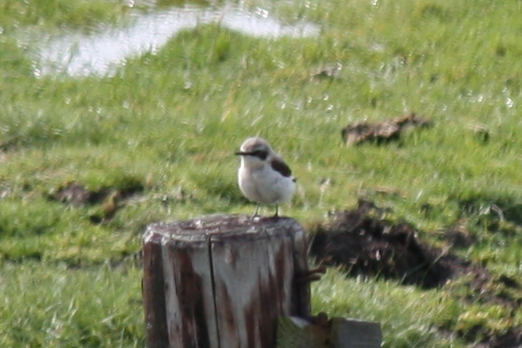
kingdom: Animalia
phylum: Chordata
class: Aves
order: Passeriformes
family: Muscicapidae
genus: Oenanthe
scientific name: Oenanthe oenanthe
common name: Northern wheatear
